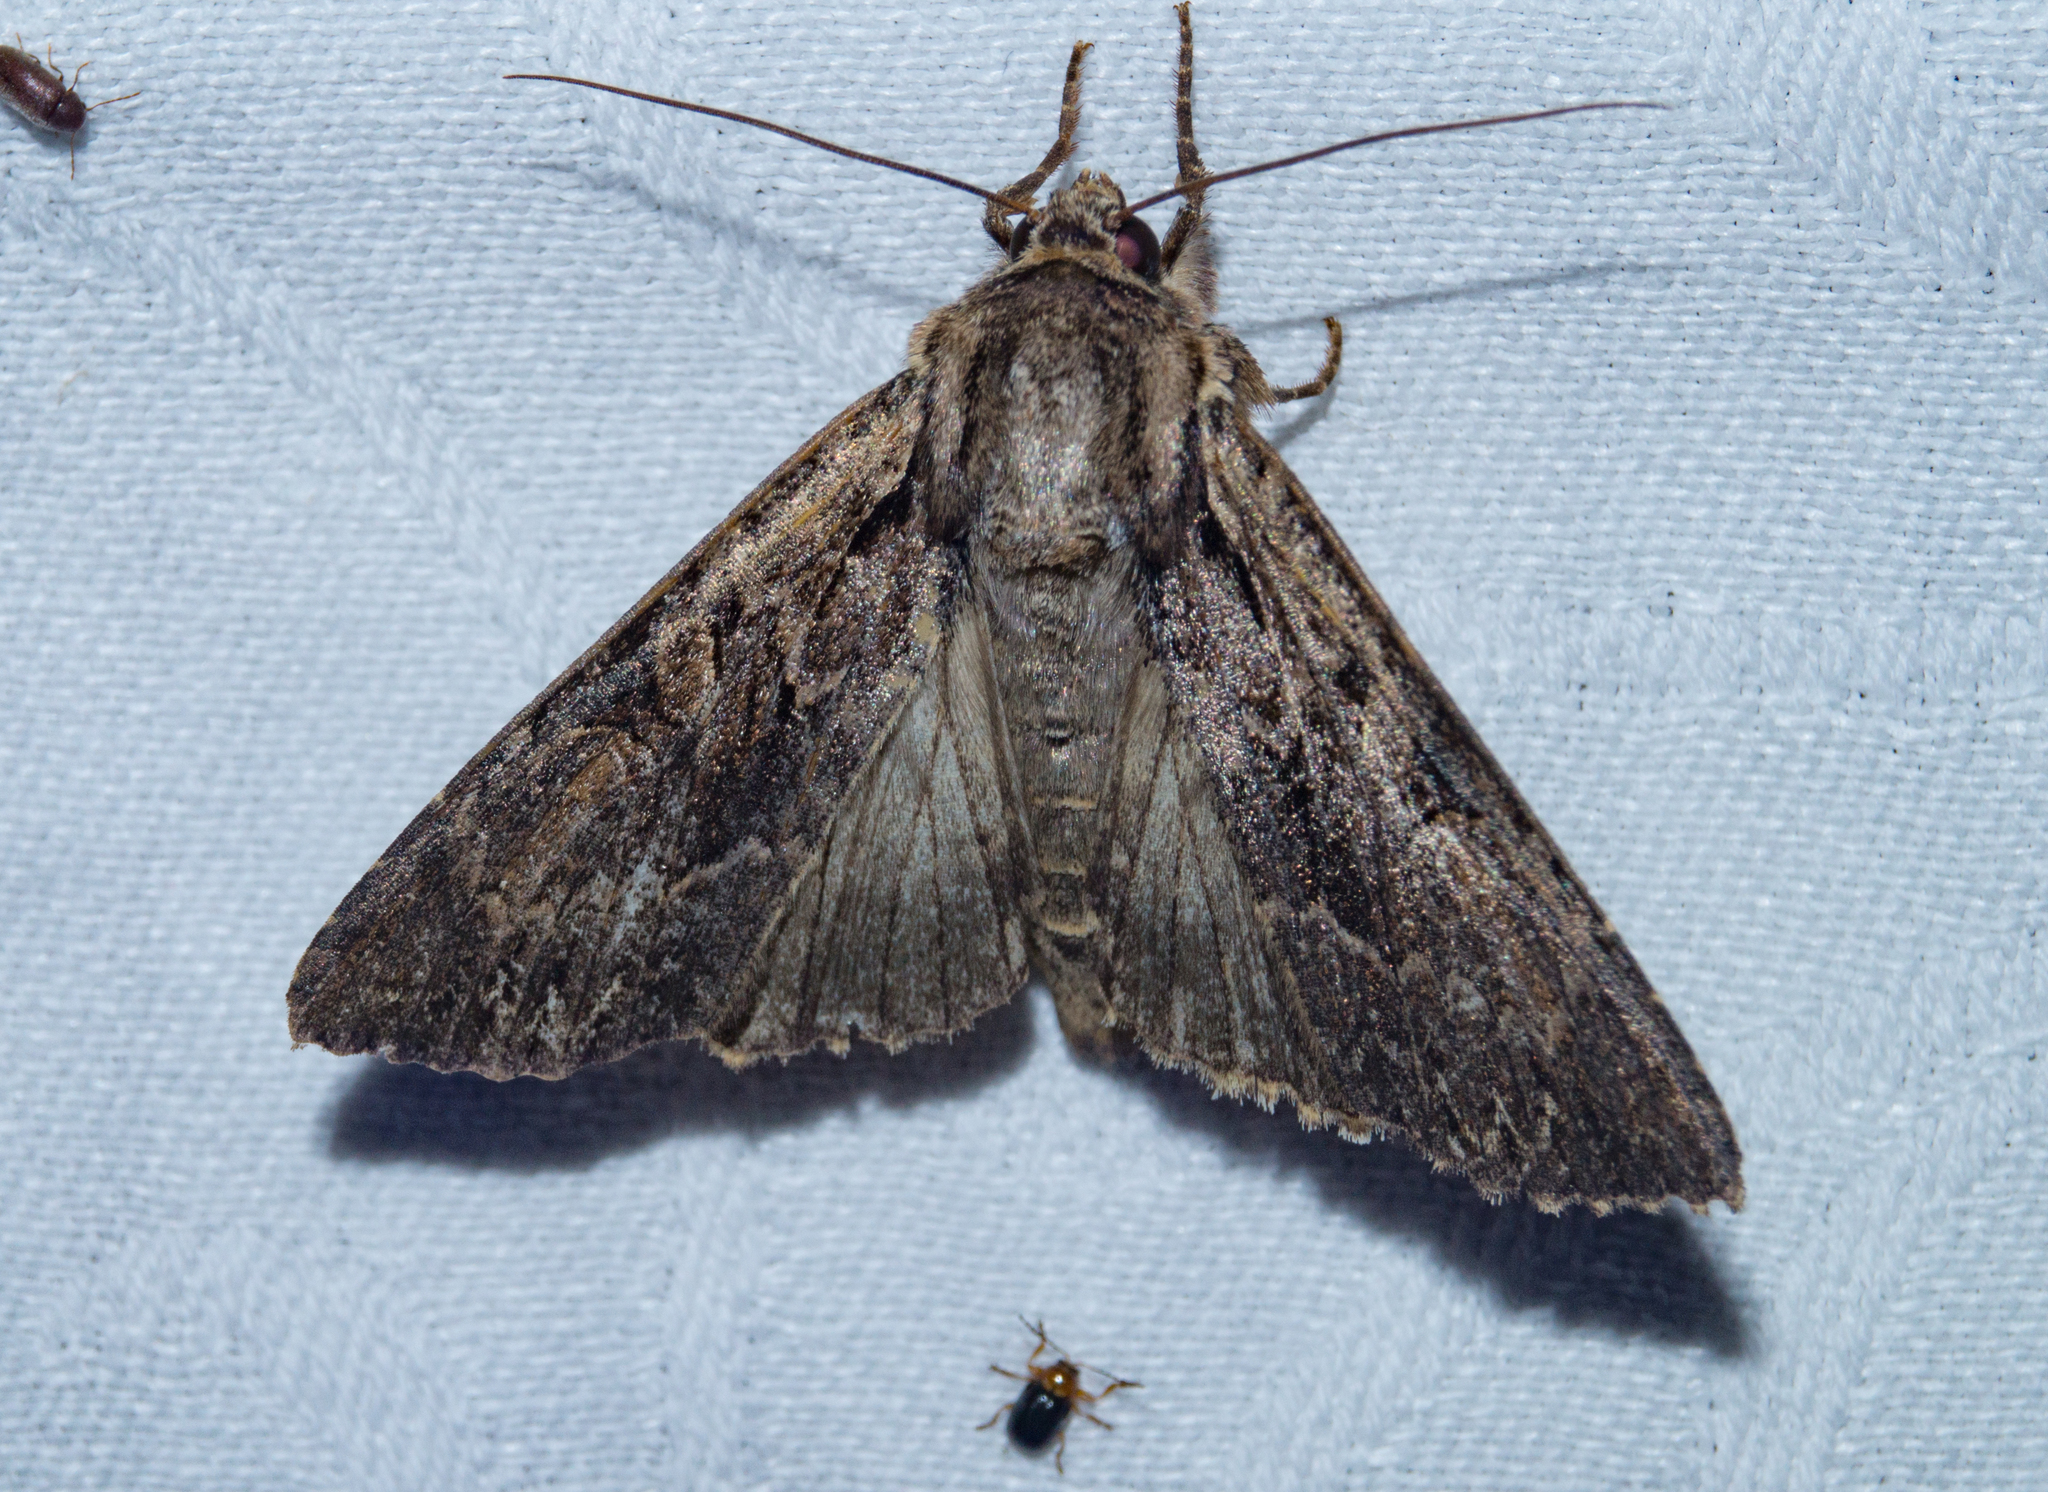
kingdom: Animalia
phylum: Arthropoda
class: Insecta
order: Lepidoptera
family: Noctuidae
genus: Apamea
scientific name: Apamea monoglypha
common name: Dark arches
